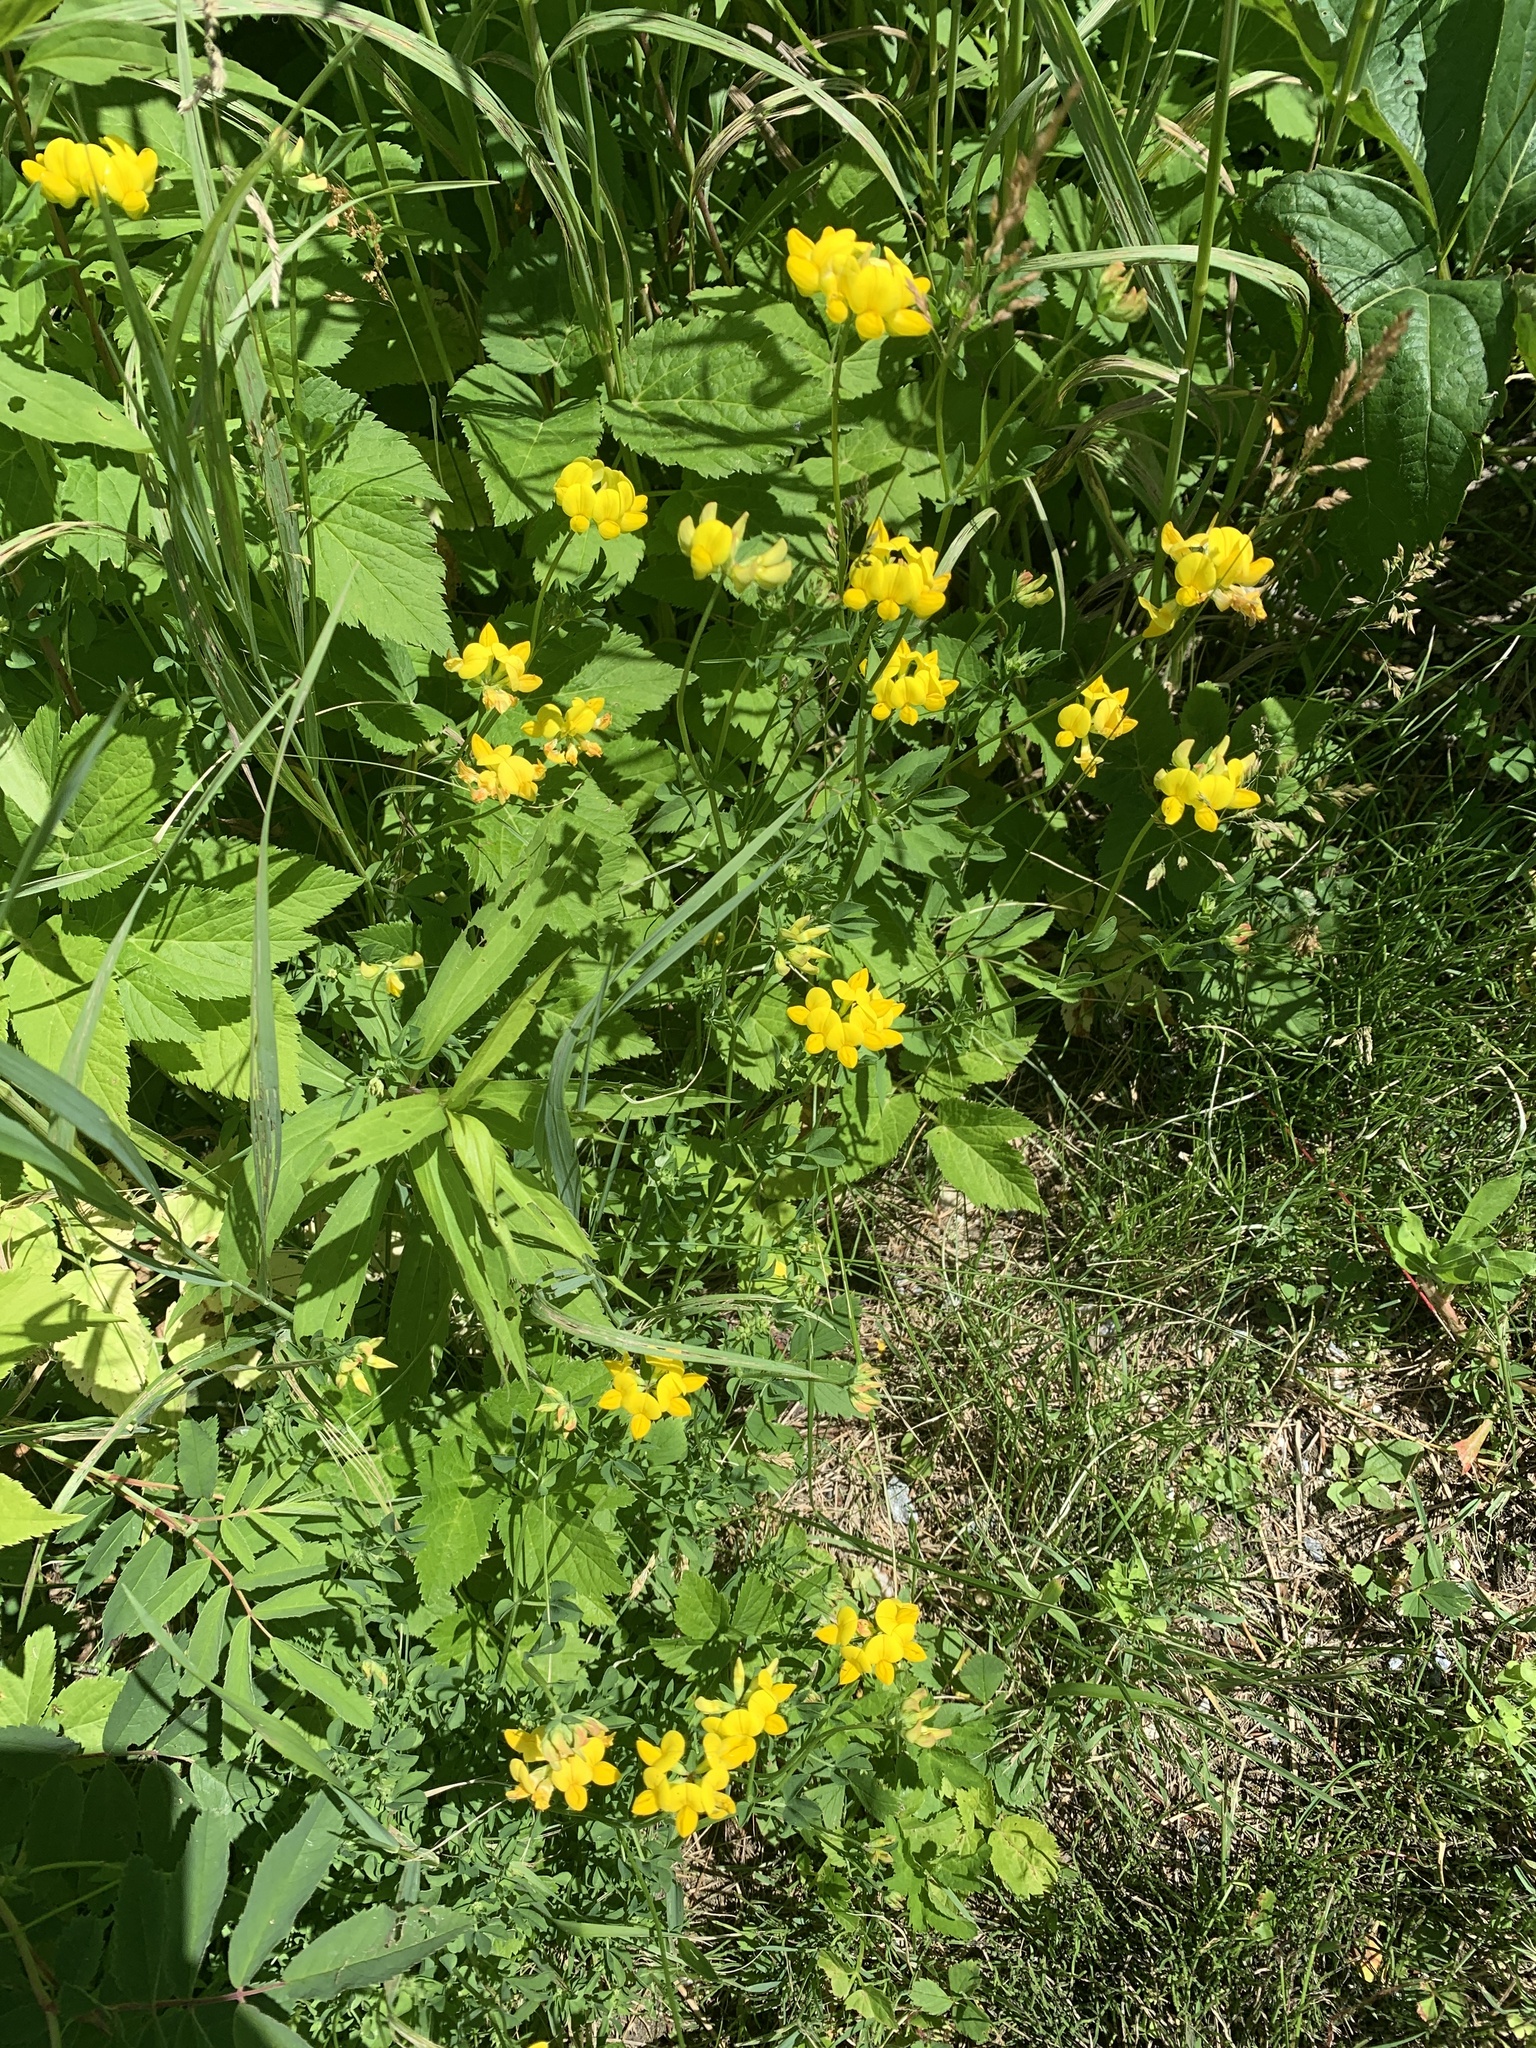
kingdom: Plantae
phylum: Tracheophyta
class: Magnoliopsida
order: Fabales
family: Fabaceae
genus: Lotus
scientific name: Lotus corniculatus
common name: Common bird's-foot-trefoil
